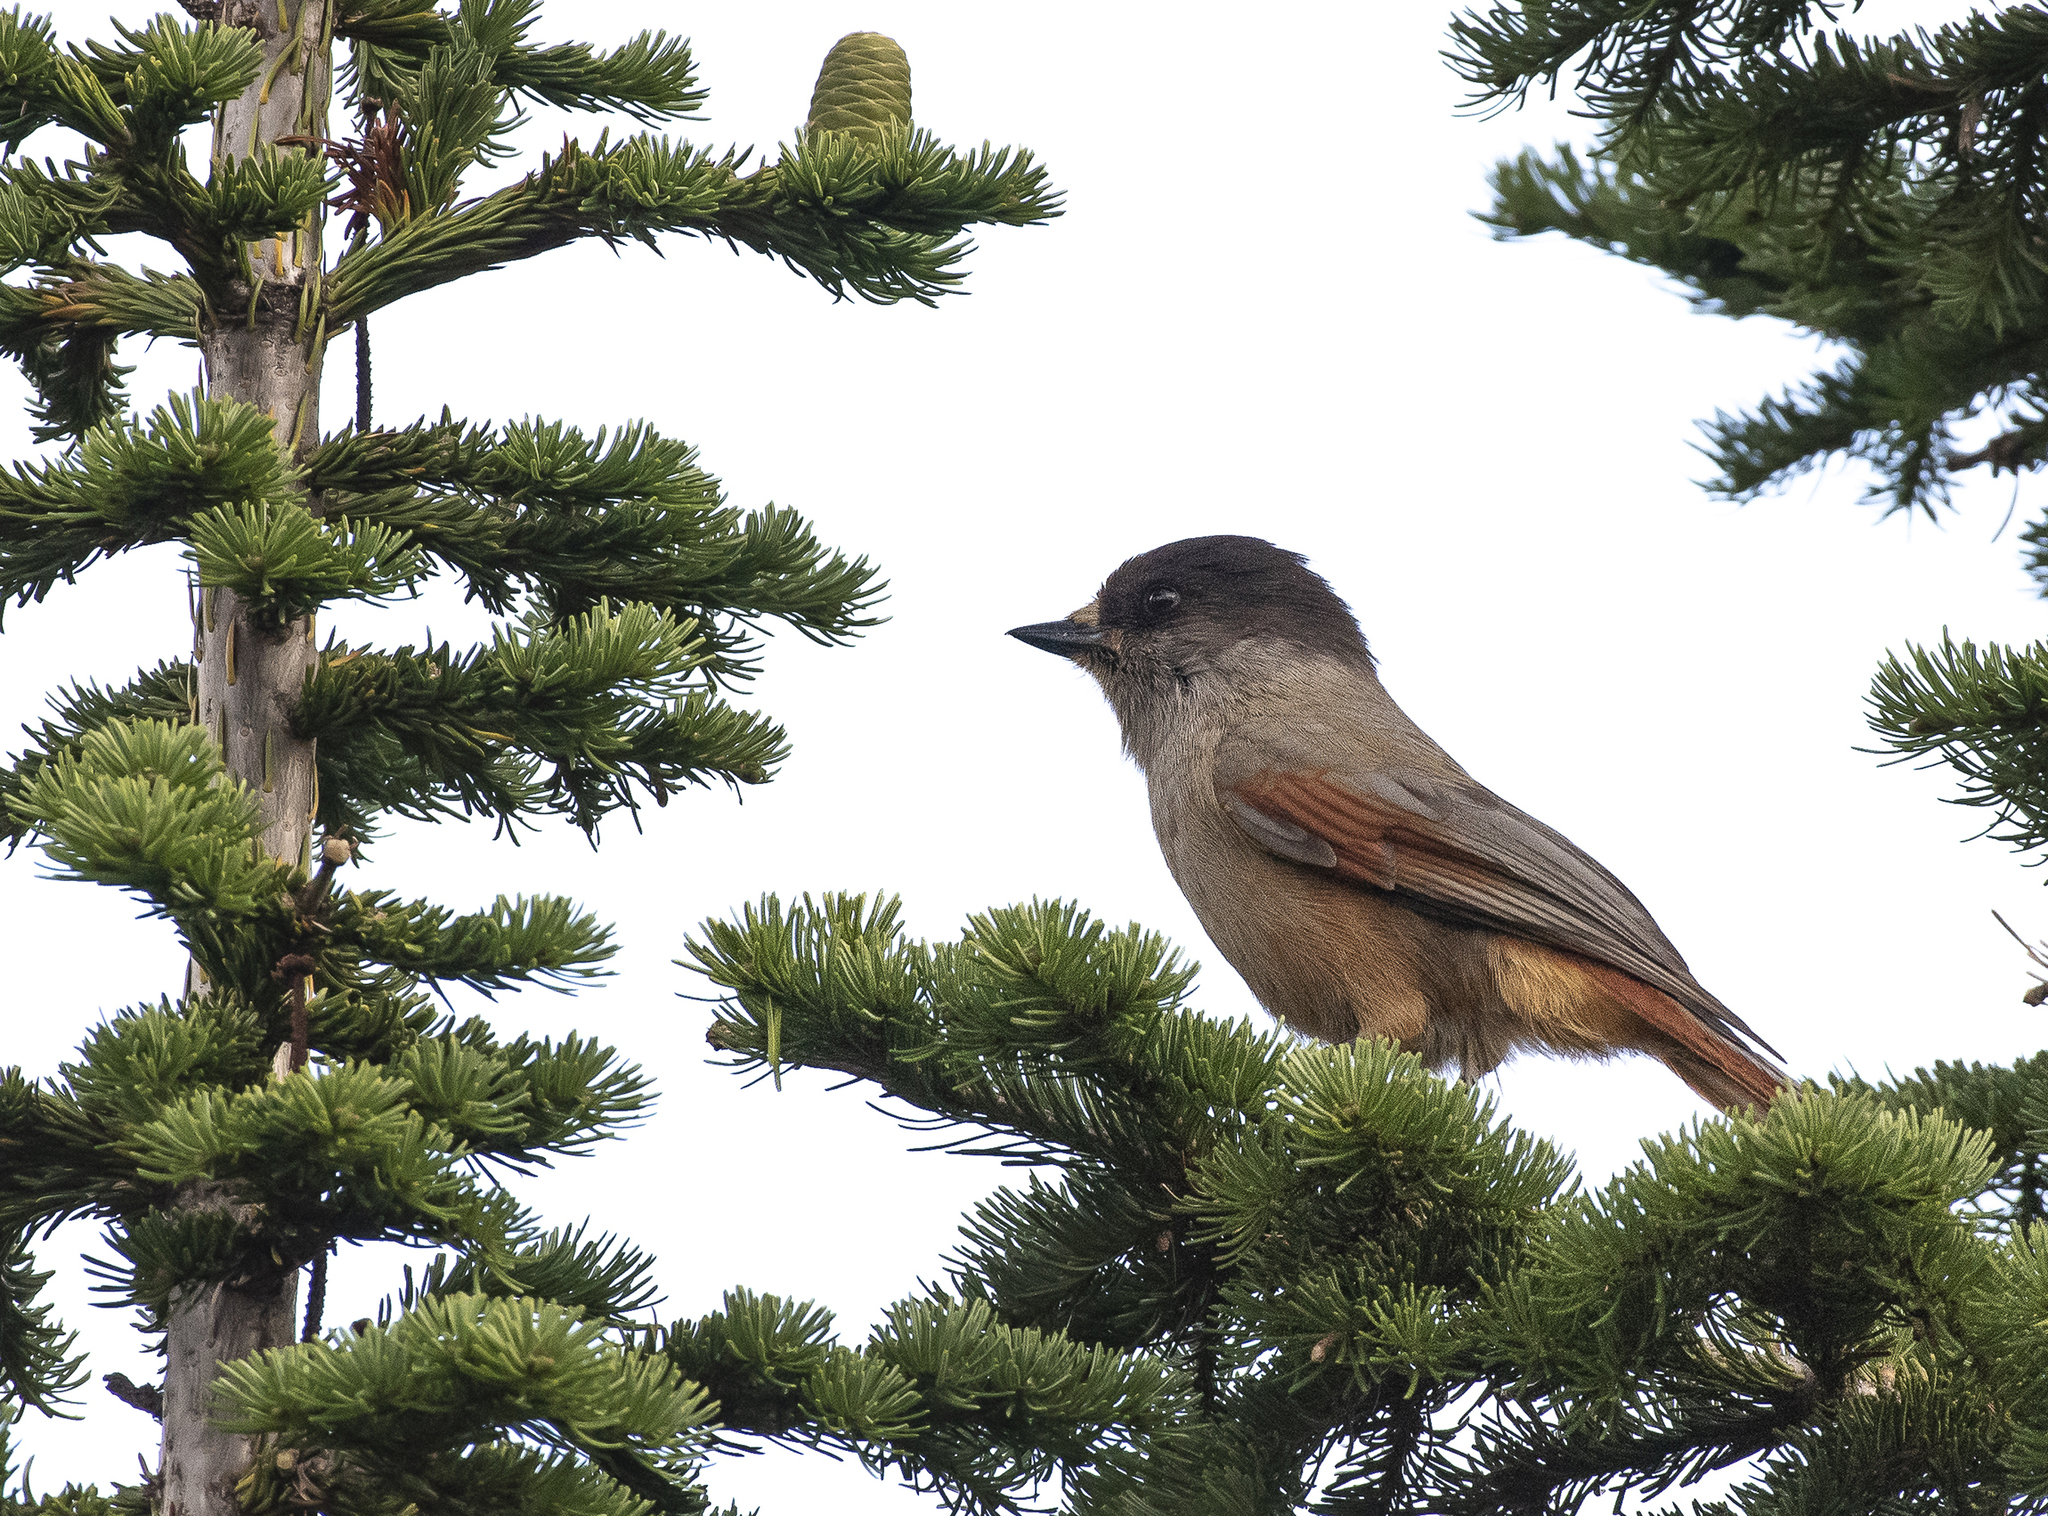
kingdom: Animalia
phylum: Chordata
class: Aves
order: Passeriformes
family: Corvidae
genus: Perisoreus
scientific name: Perisoreus infaustus
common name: Siberian jay
